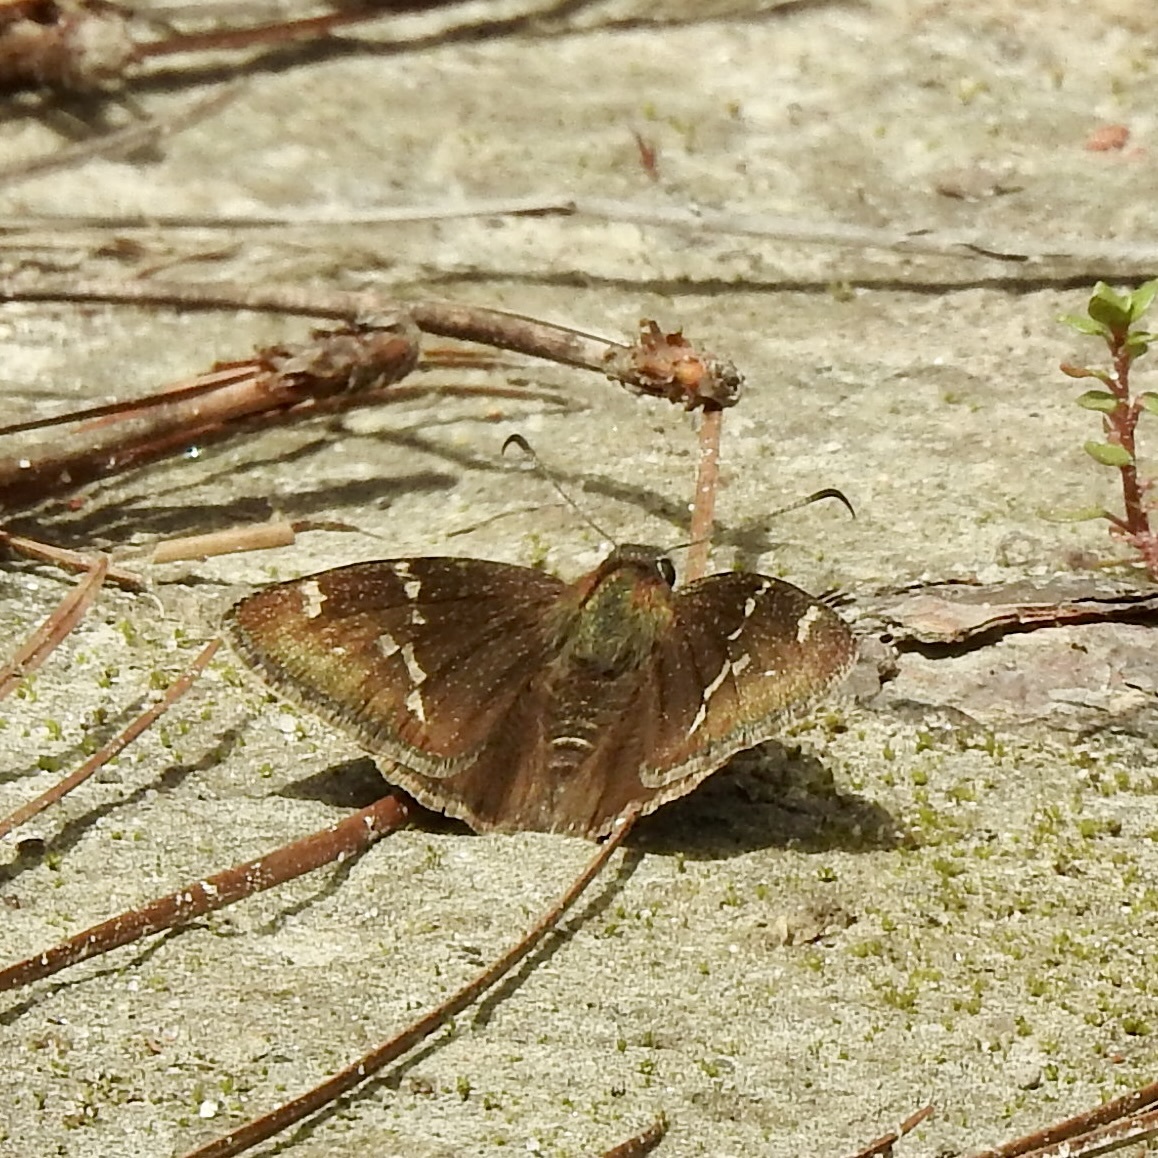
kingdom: Animalia
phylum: Arthropoda
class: Insecta
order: Lepidoptera
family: Hesperiidae
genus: Thorybes
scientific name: Thorybes daunus
